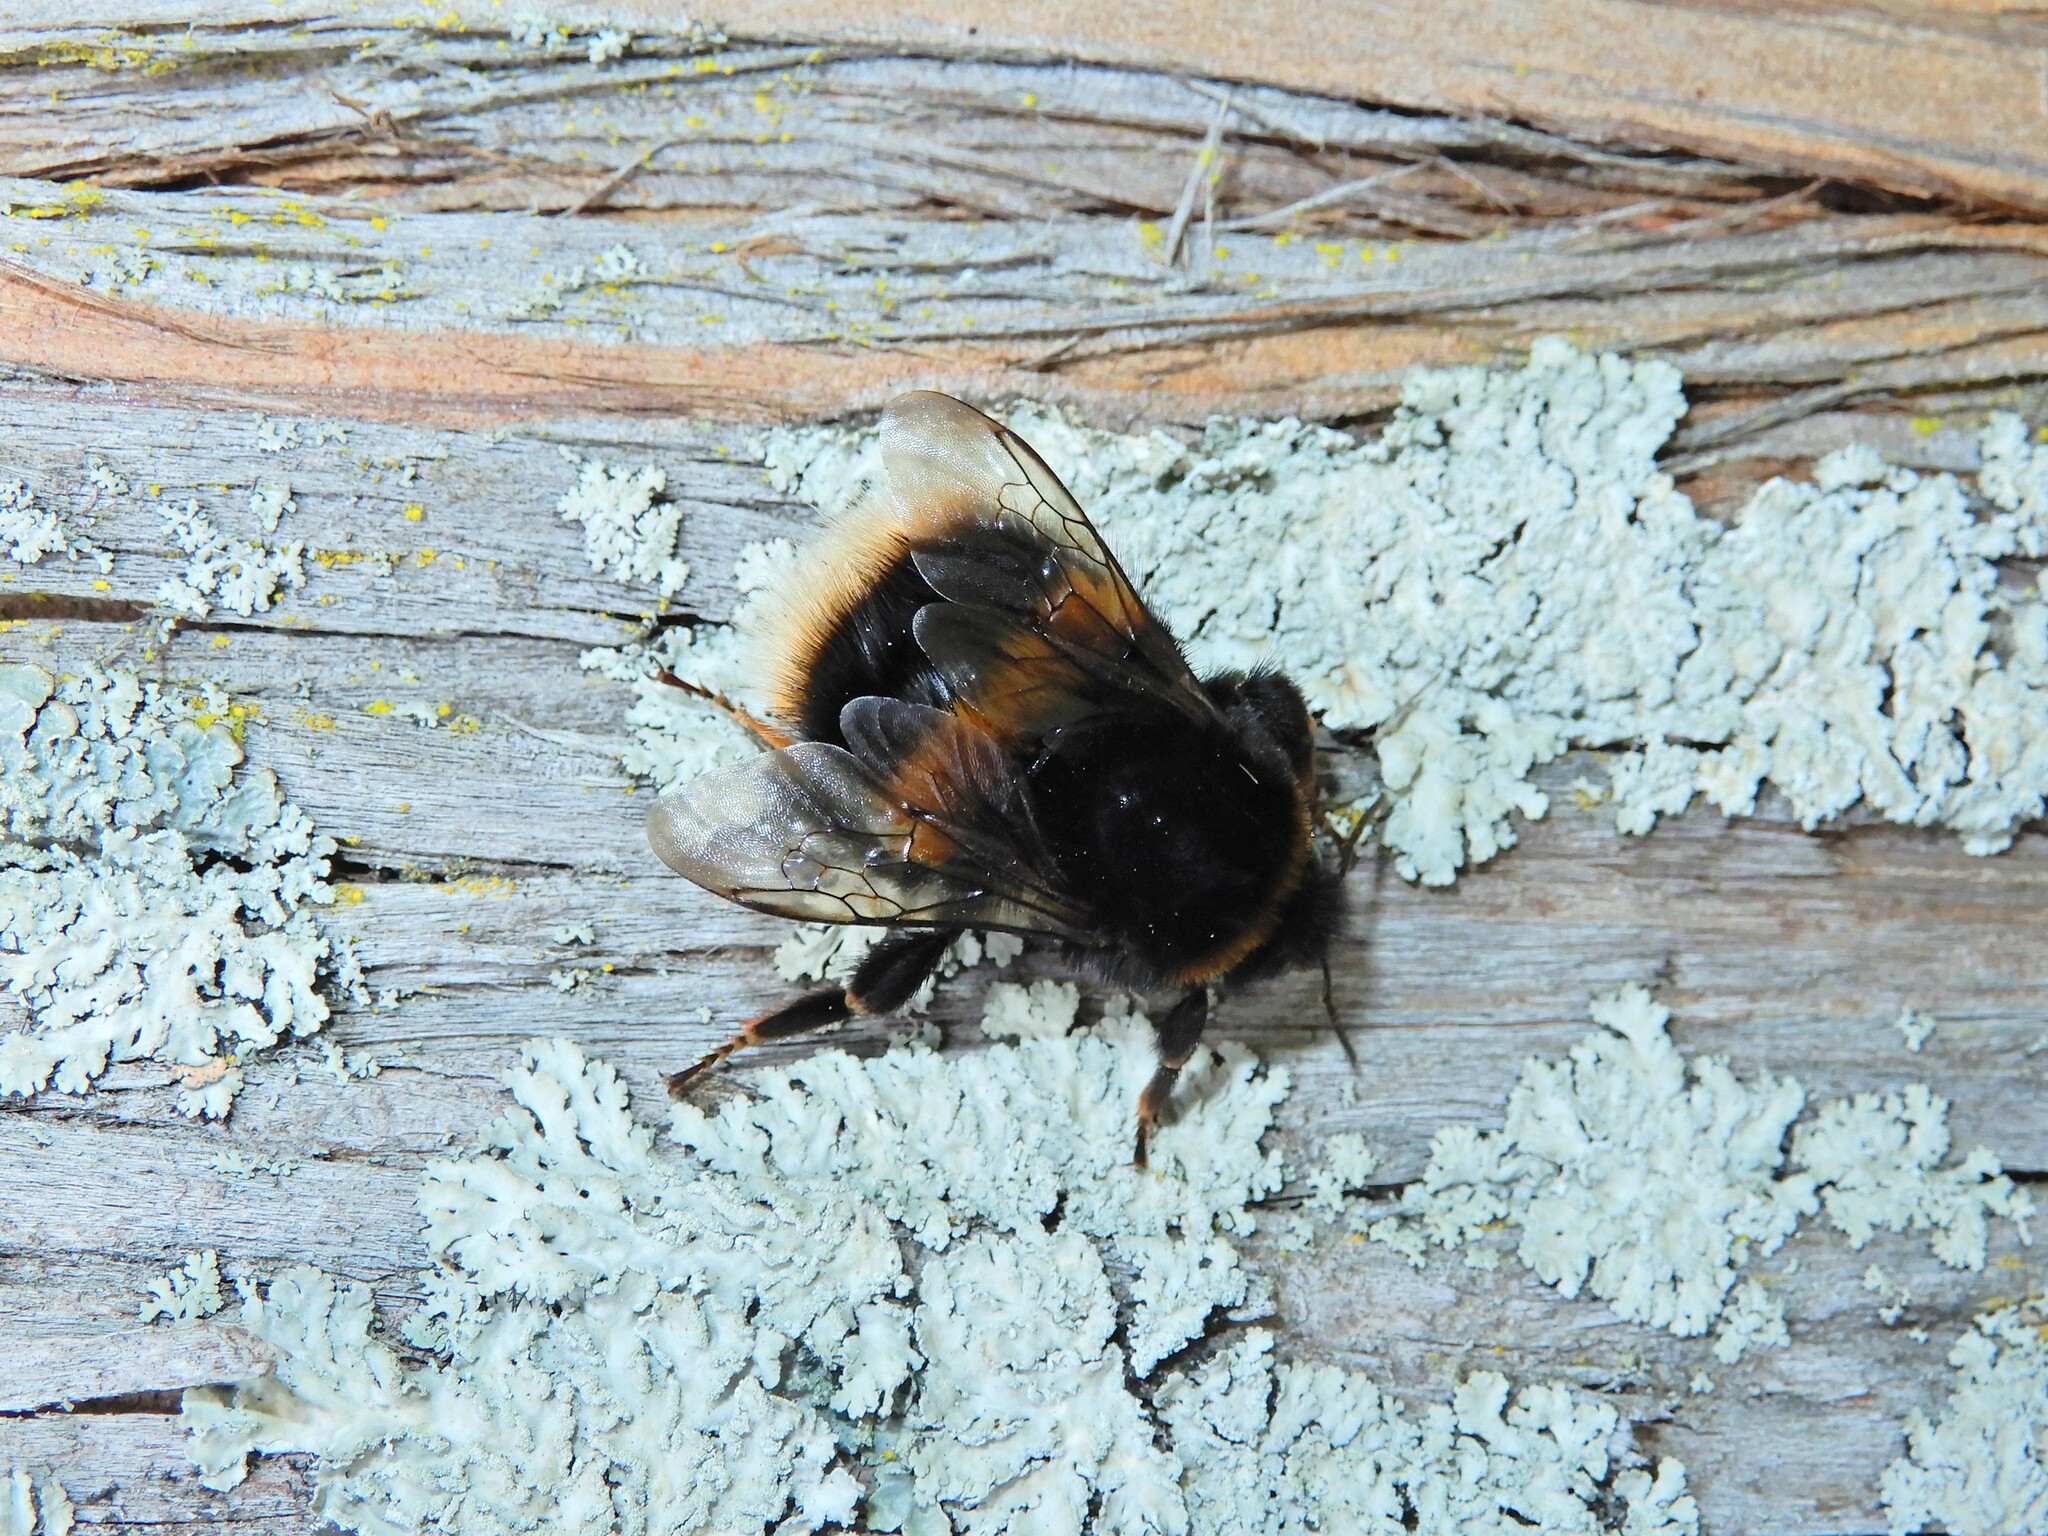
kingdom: Animalia
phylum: Arthropoda
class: Insecta
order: Hymenoptera
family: Apidae
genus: Bombus
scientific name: Bombus terrestris
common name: Buff-tailed bumblebee
